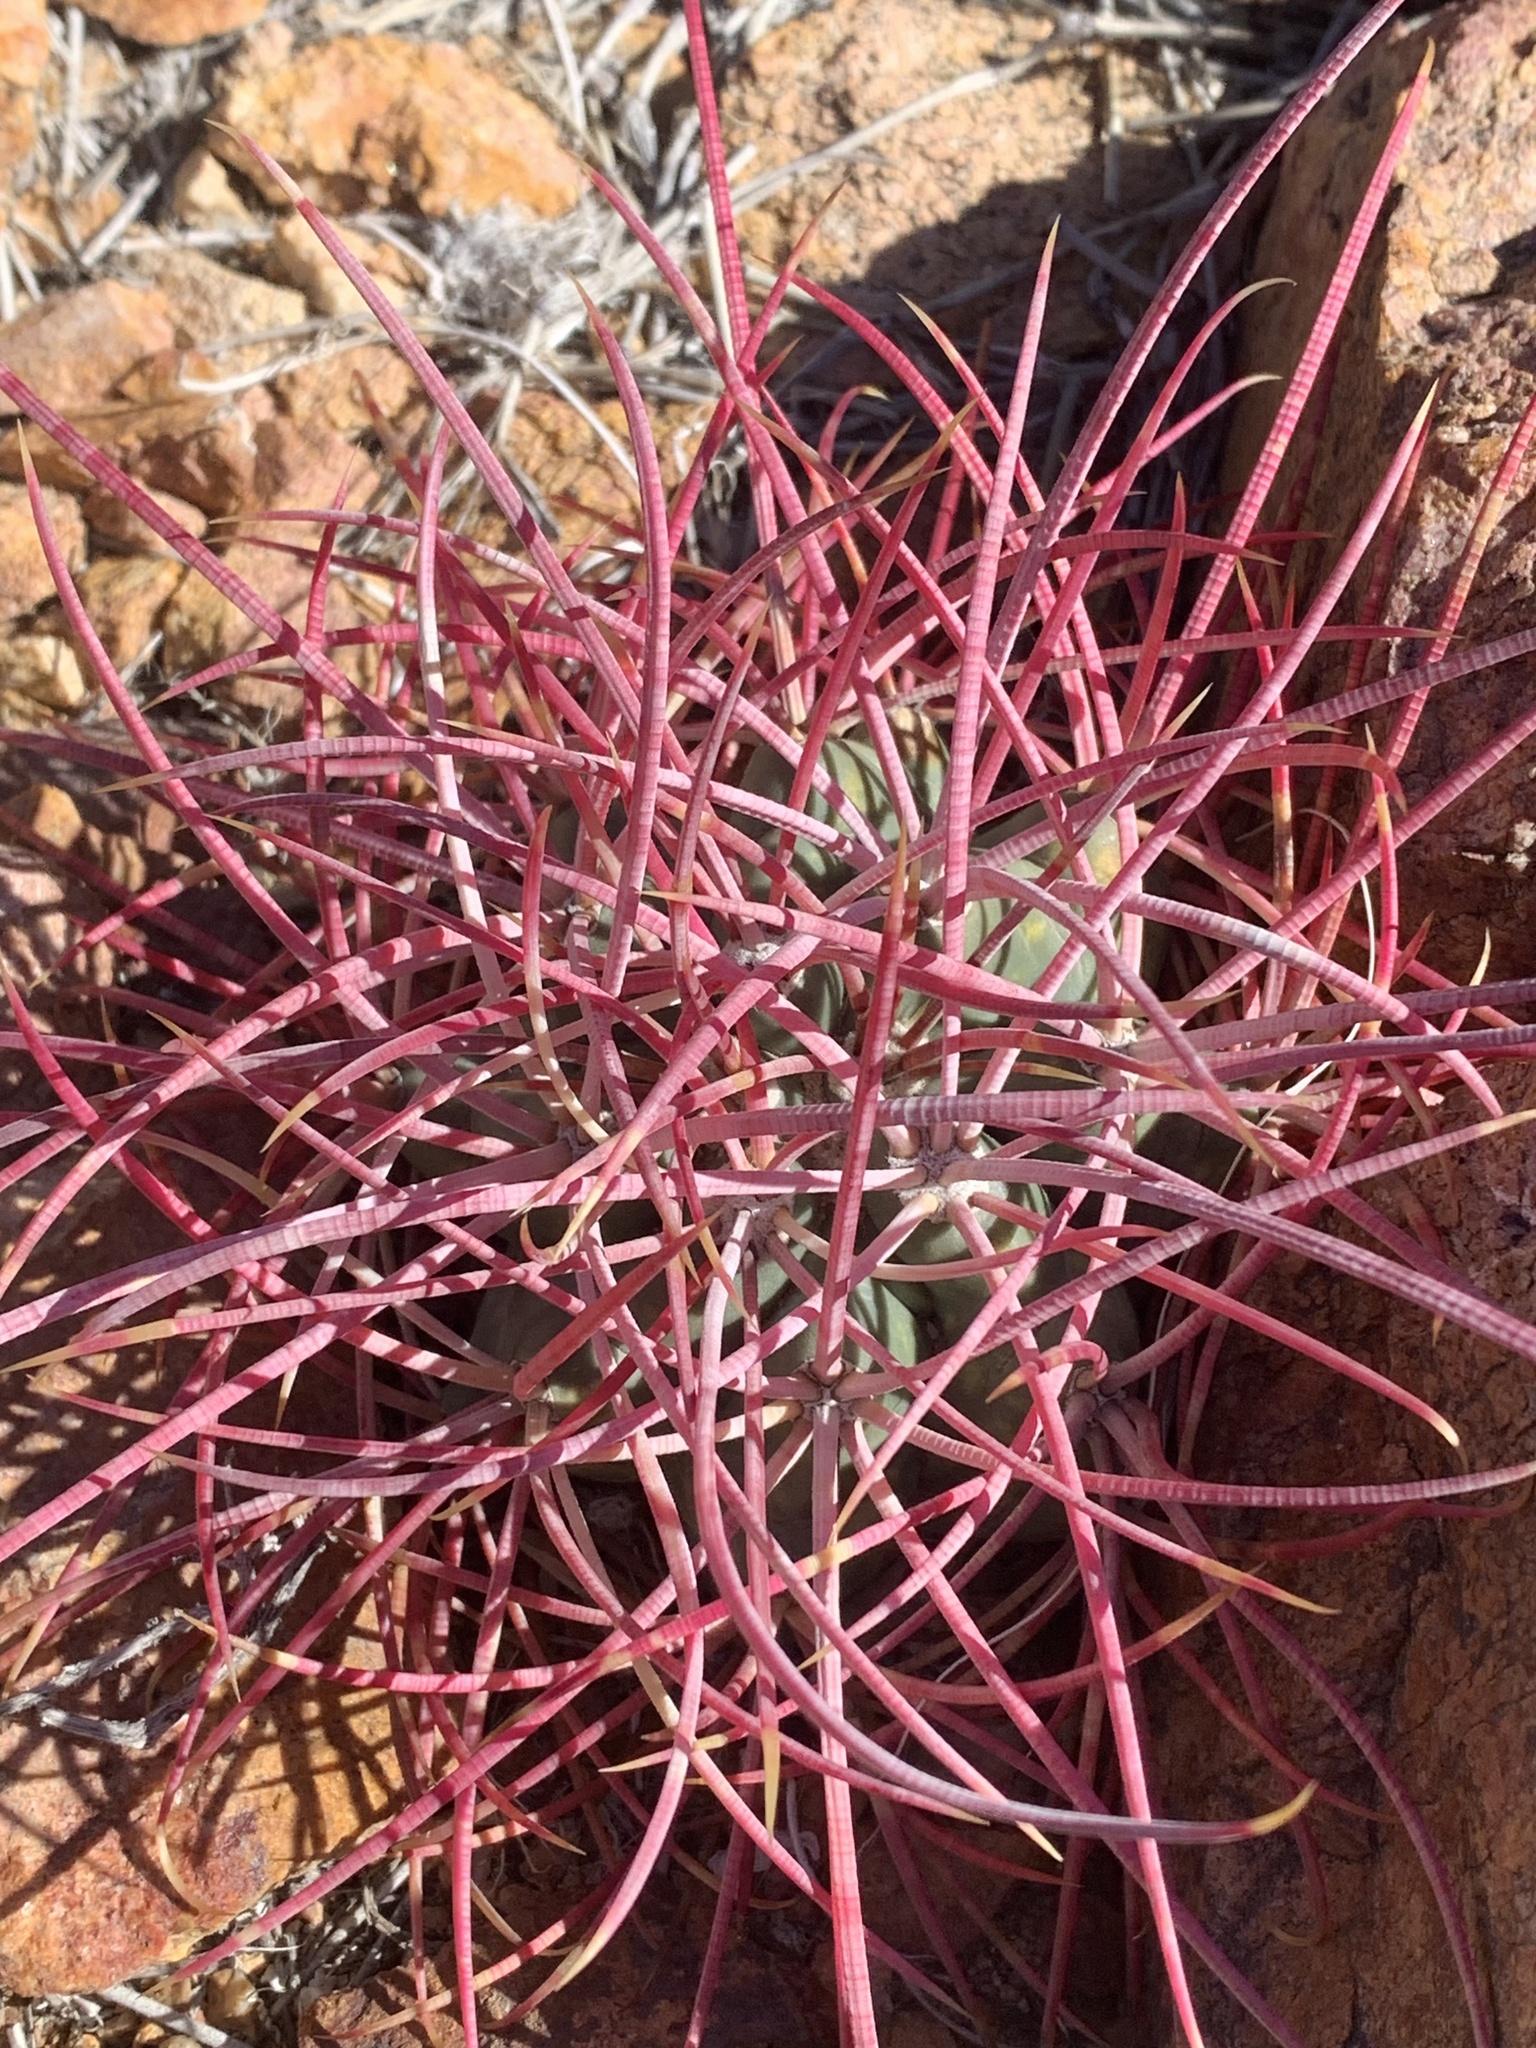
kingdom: Plantae
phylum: Tracheophyta
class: Magnoliopsida
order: Caryophyllales
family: Cactaceae
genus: Ferocactus
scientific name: Ferocactus cylindraceus
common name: California barrel cactus
